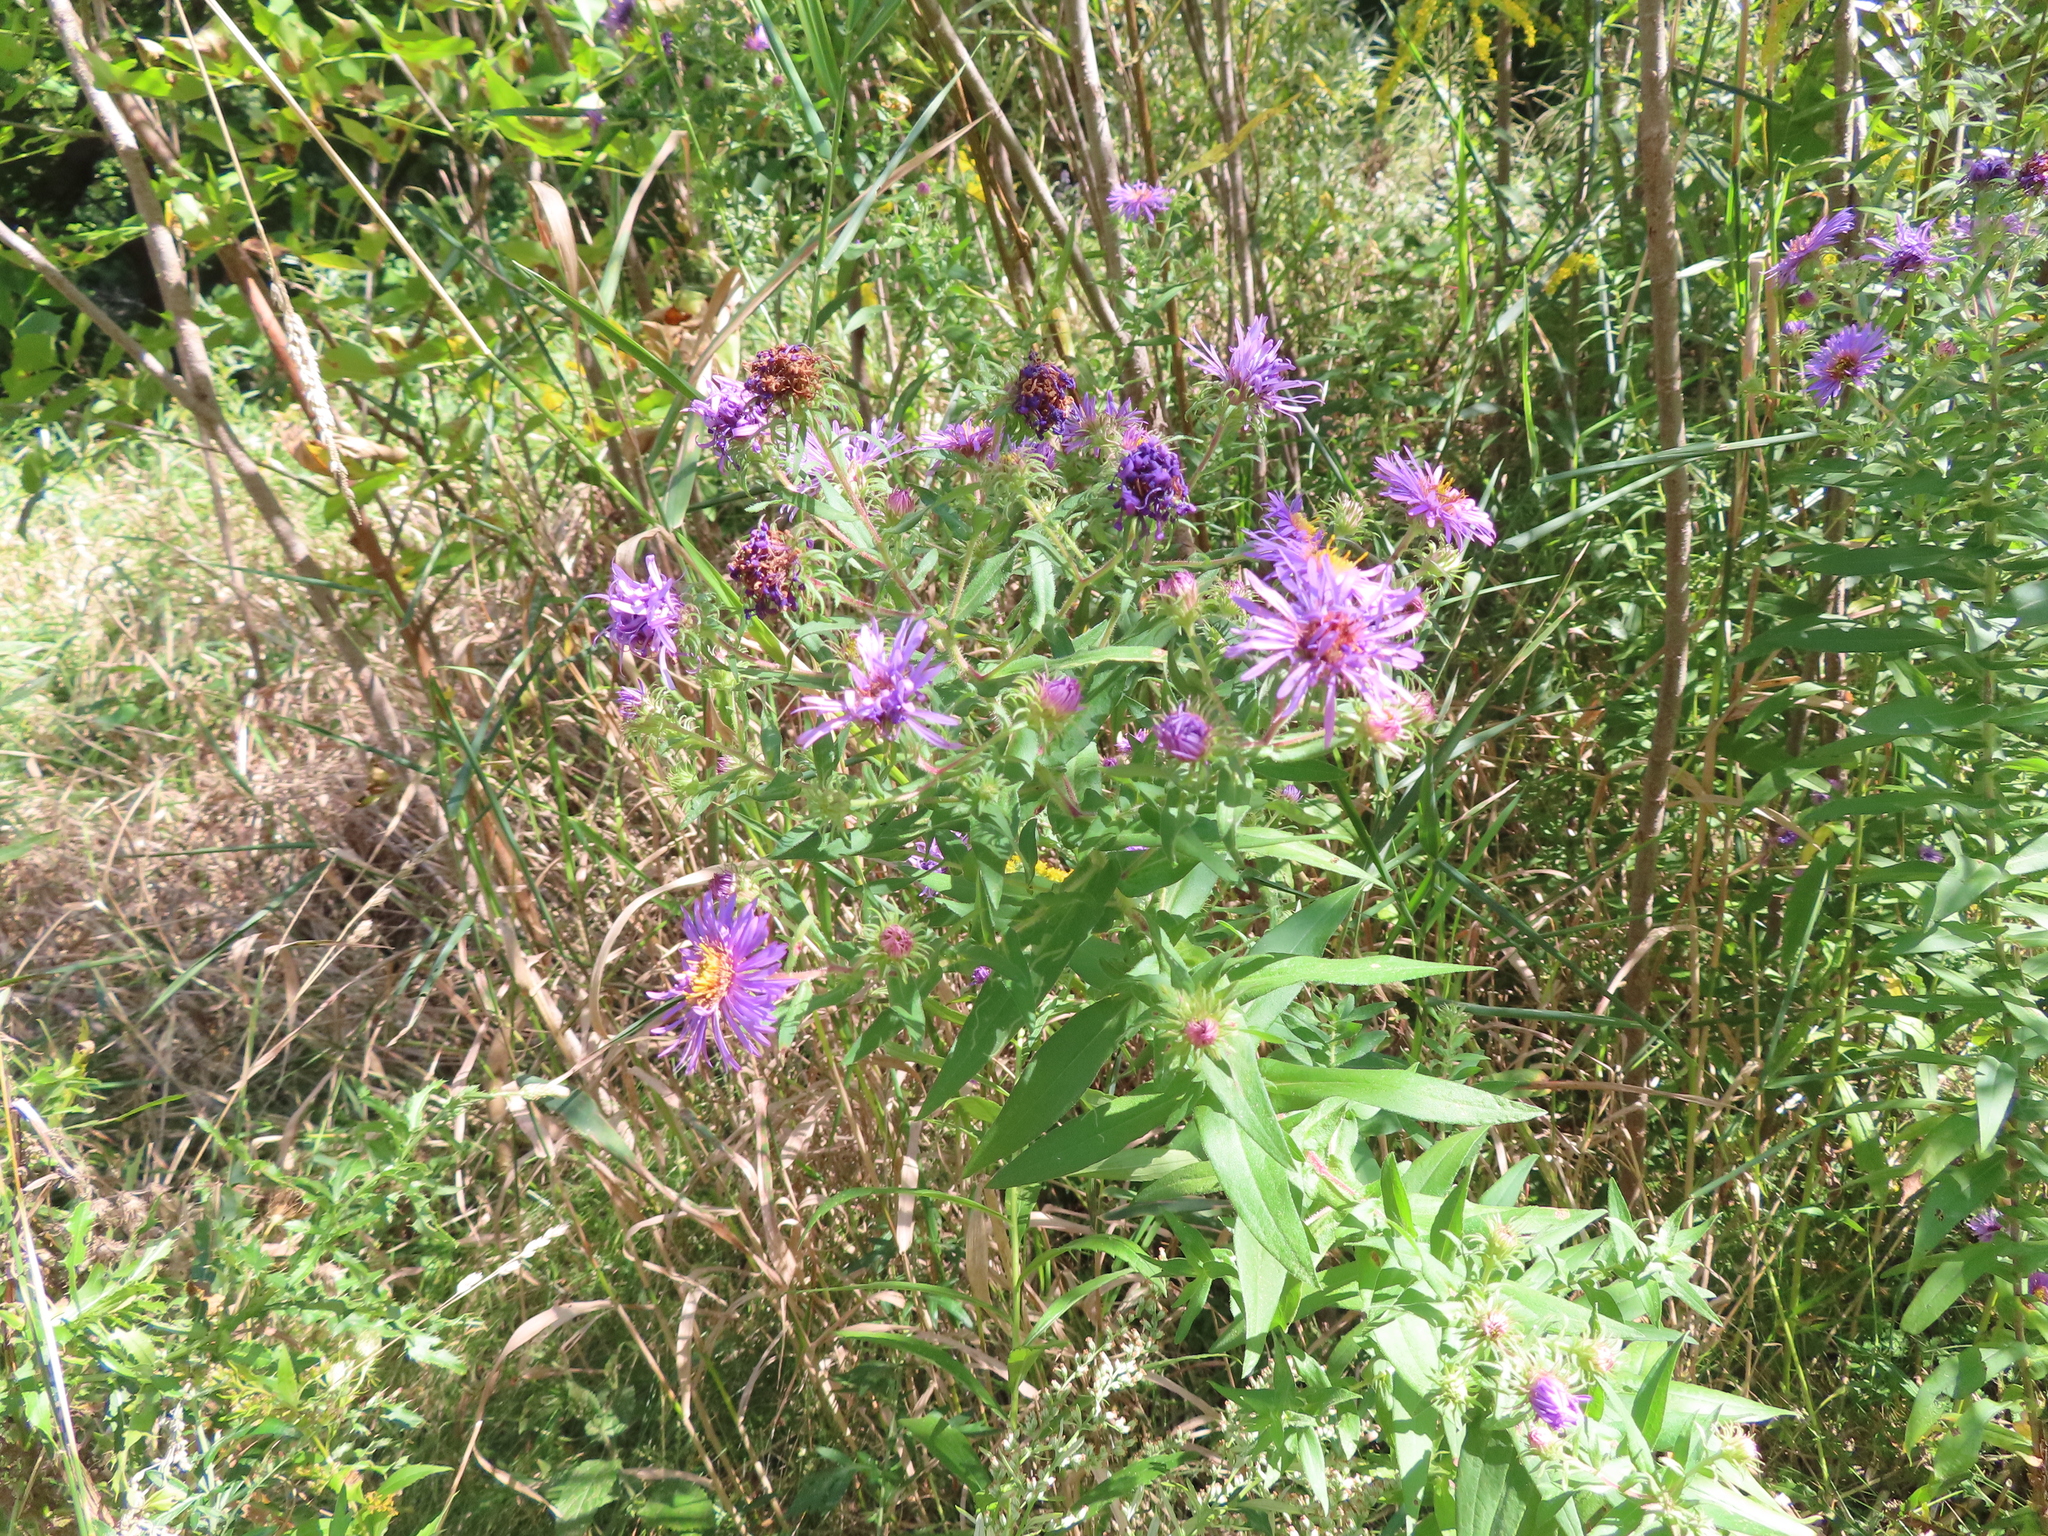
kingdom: Plantae
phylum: Tracheophyta
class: Magnoliopsida
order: Asterales
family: Asteraceae
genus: Symphyotrichum
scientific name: Symphyotrichum novae-angliae
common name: Michaelmas daisy
